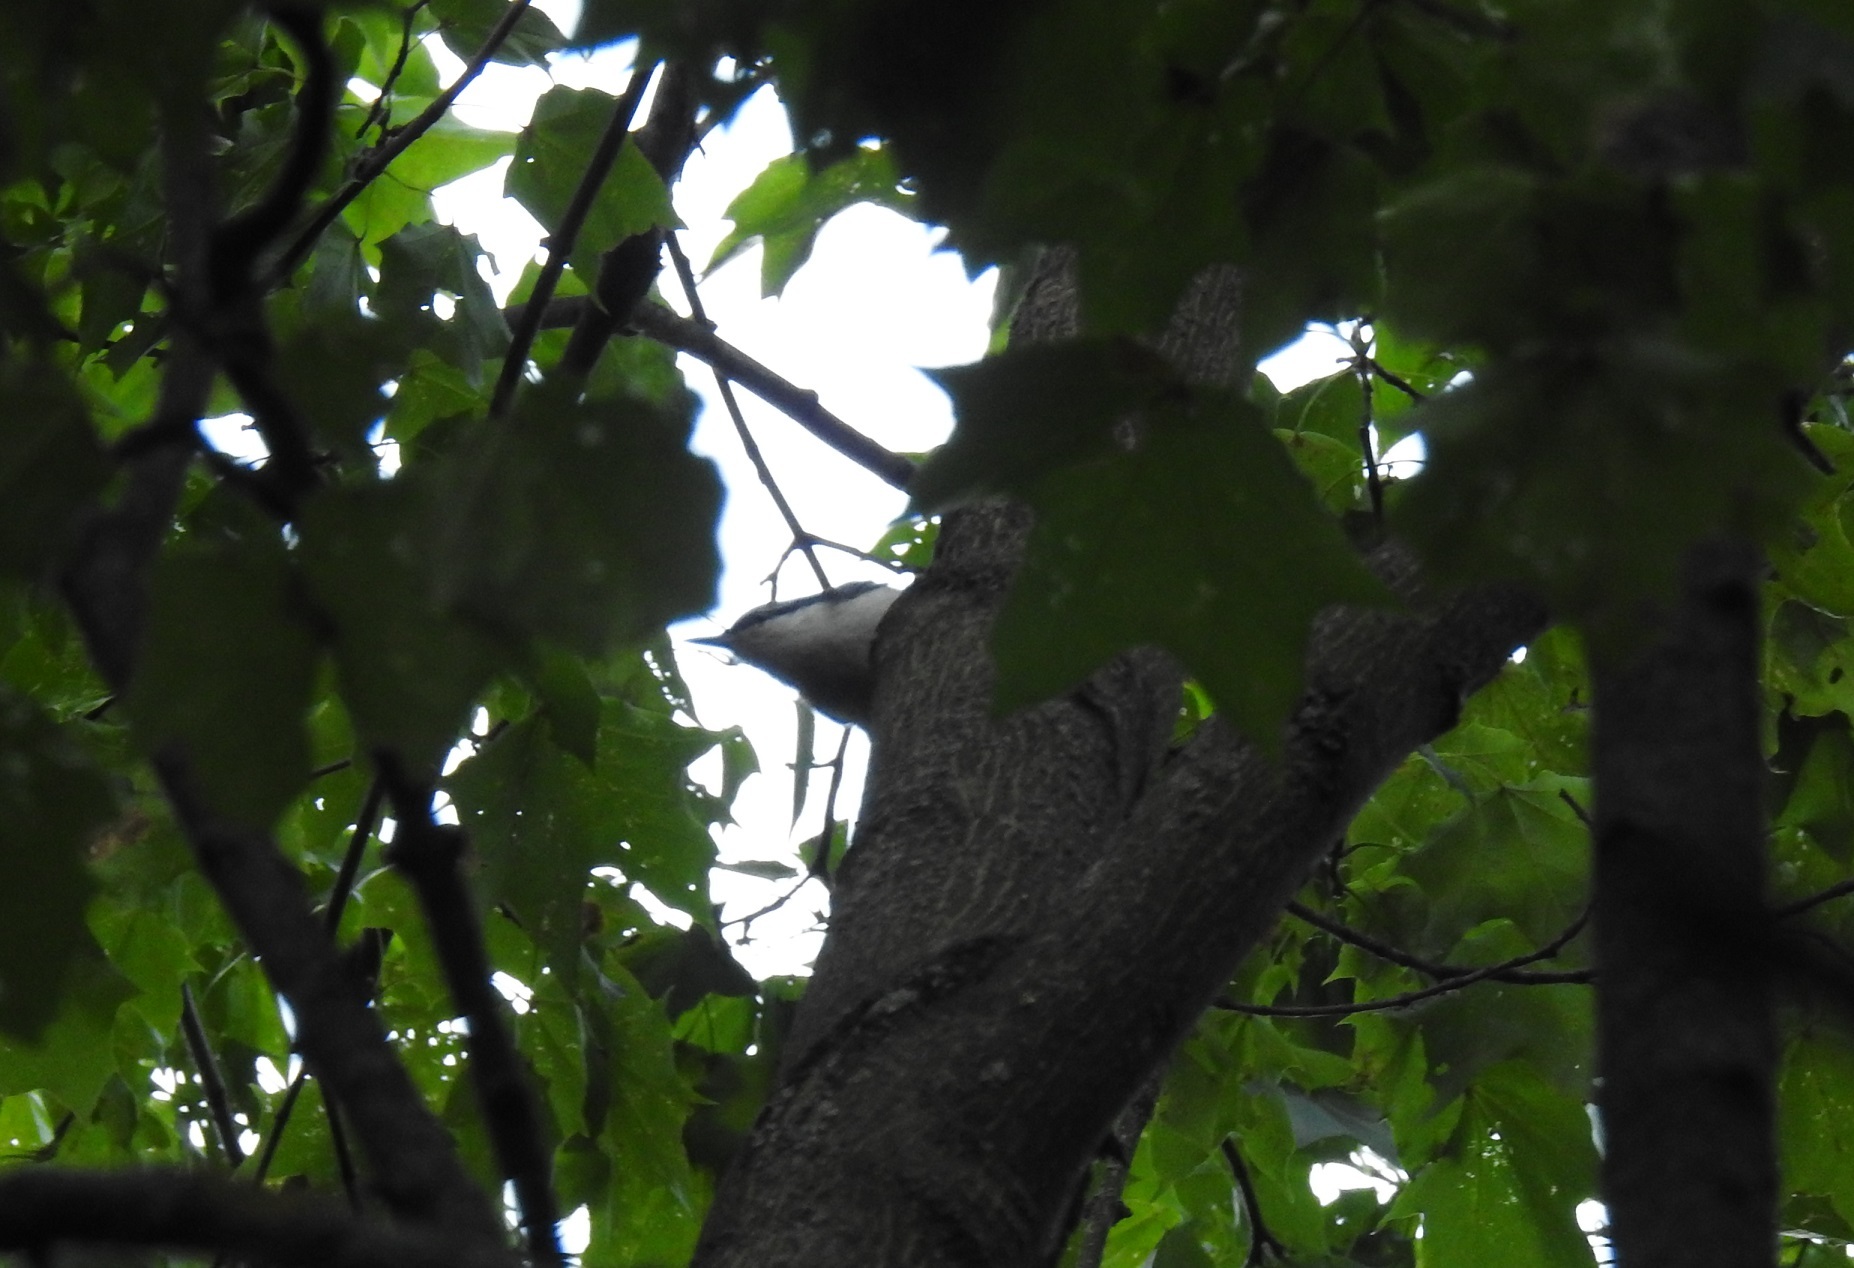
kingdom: Animalia
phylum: Chordata
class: Aves
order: Passeriformes
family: Sittidae
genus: Sitta
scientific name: Sitta europaea
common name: Eurasian nuthatch
